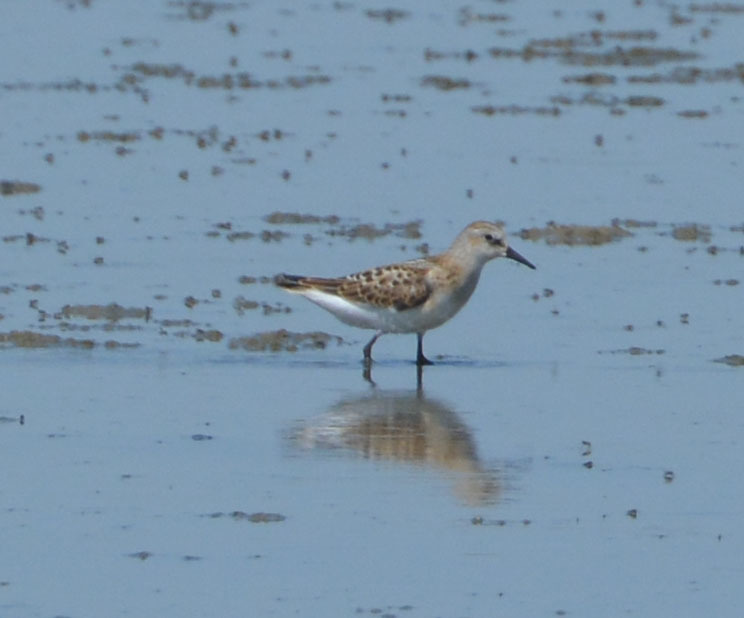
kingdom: Animalia
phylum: Chordata
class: Aves
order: Charadriiformes
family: Scolopacidae
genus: Calidris
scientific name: Calidris minuta
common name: Little stint
